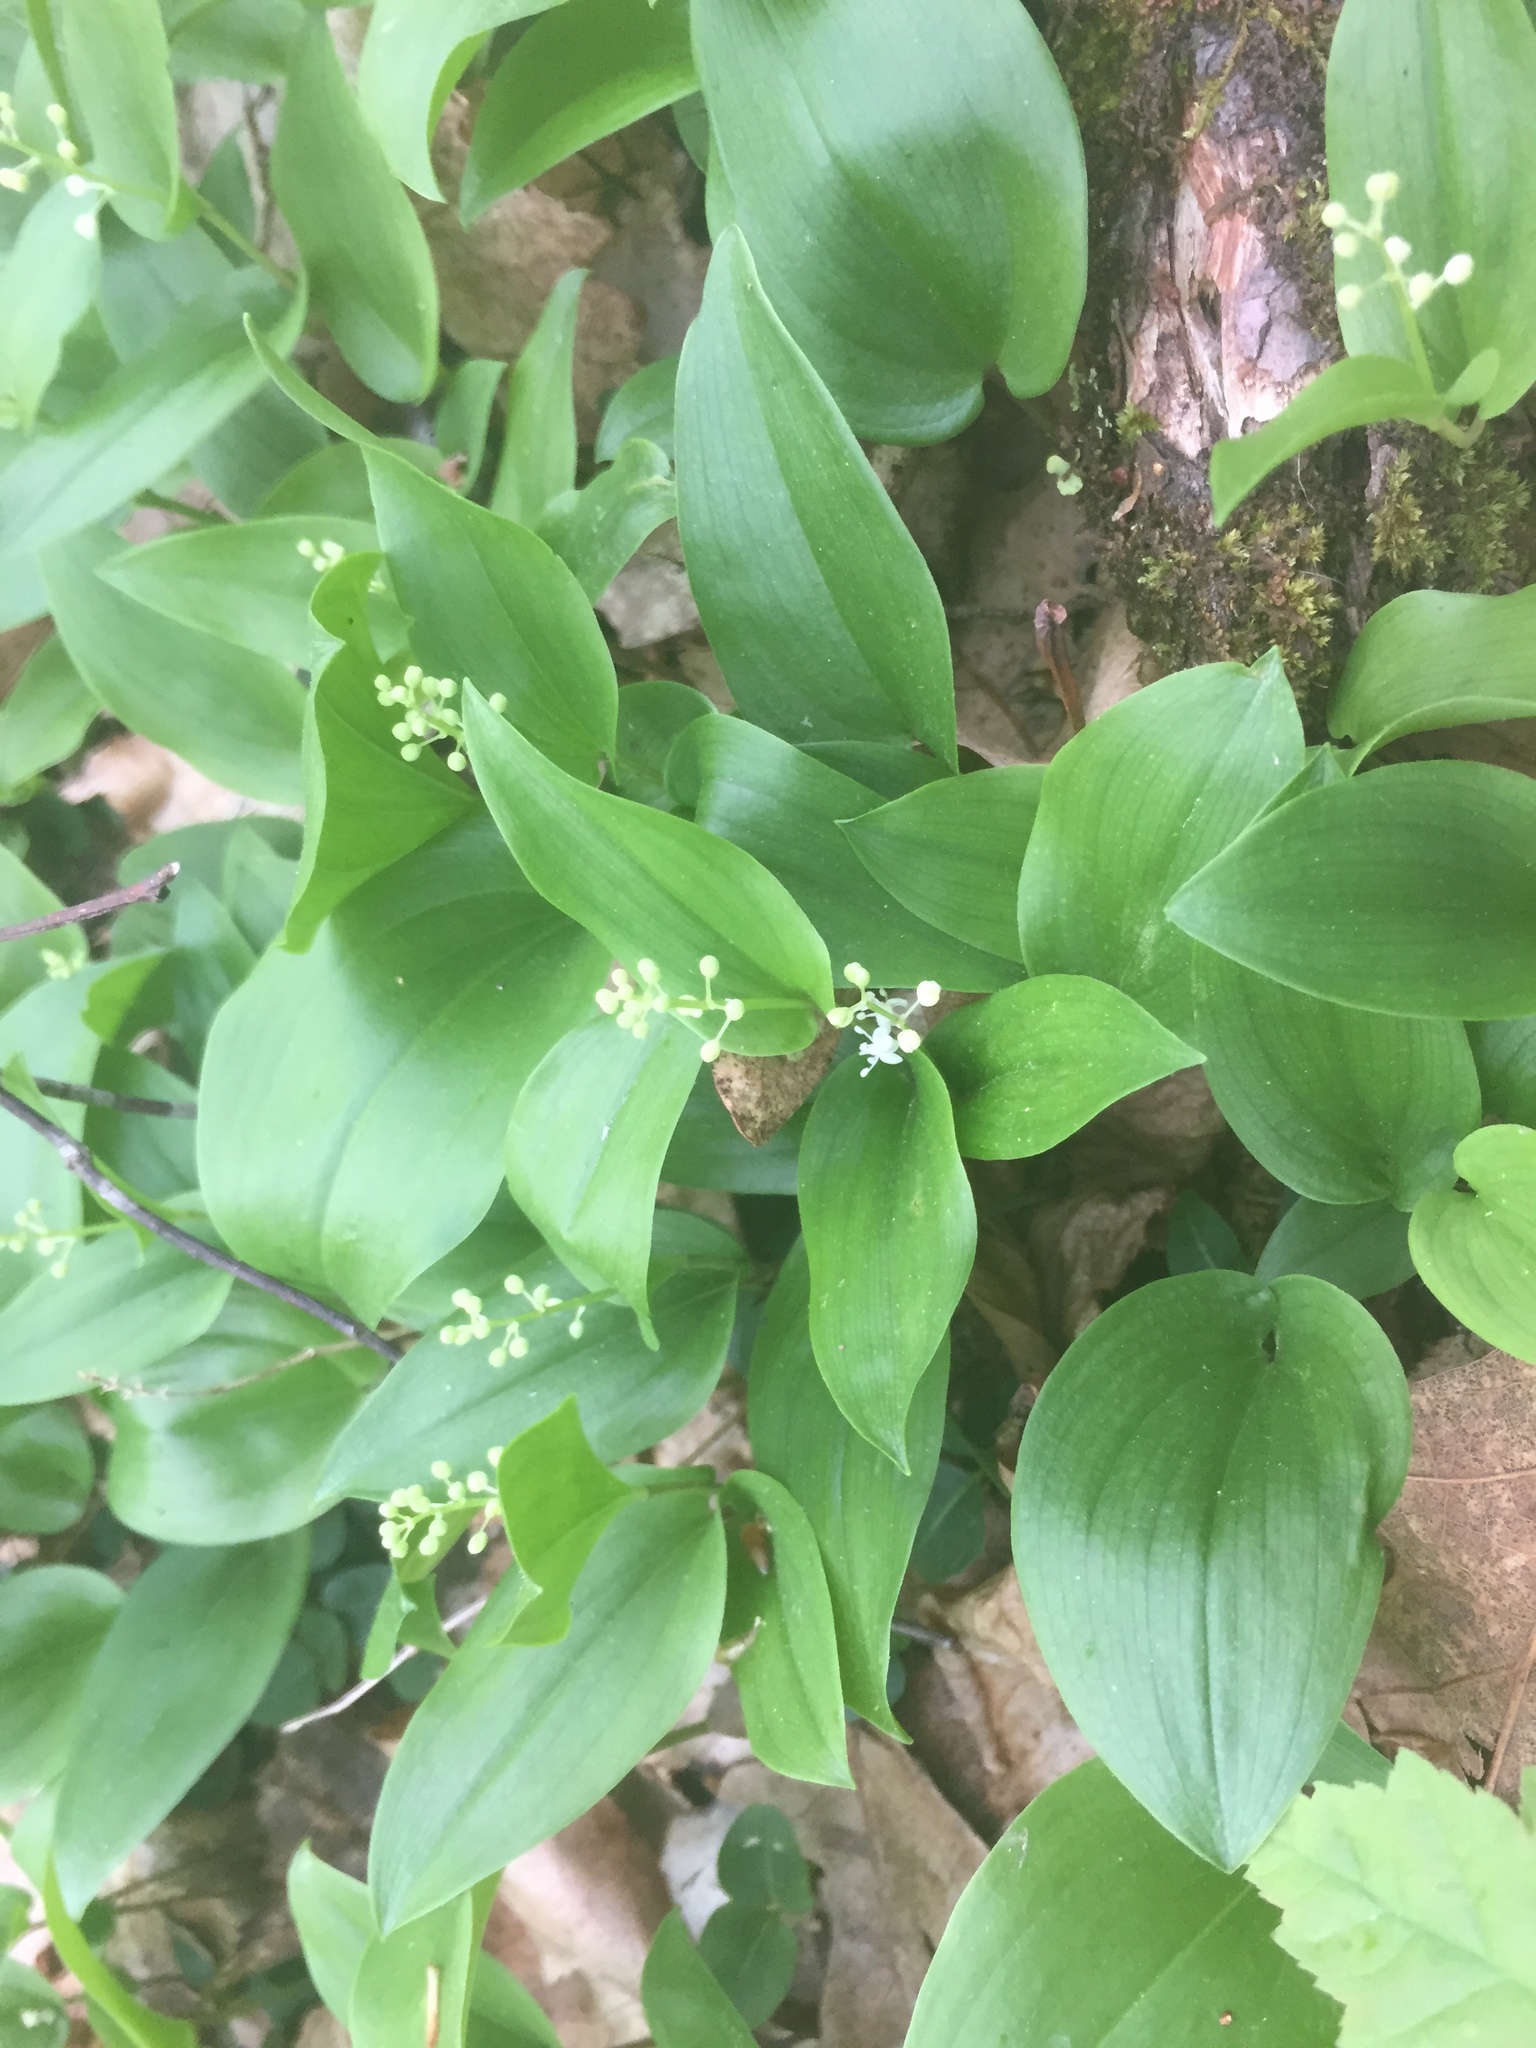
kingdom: Plantae
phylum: Tracheophyta
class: Liliopsida
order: Asparagales
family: Asparagaceae
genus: Maianthemum
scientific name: Maianthemum canadense
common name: False lily-of-the-valley
